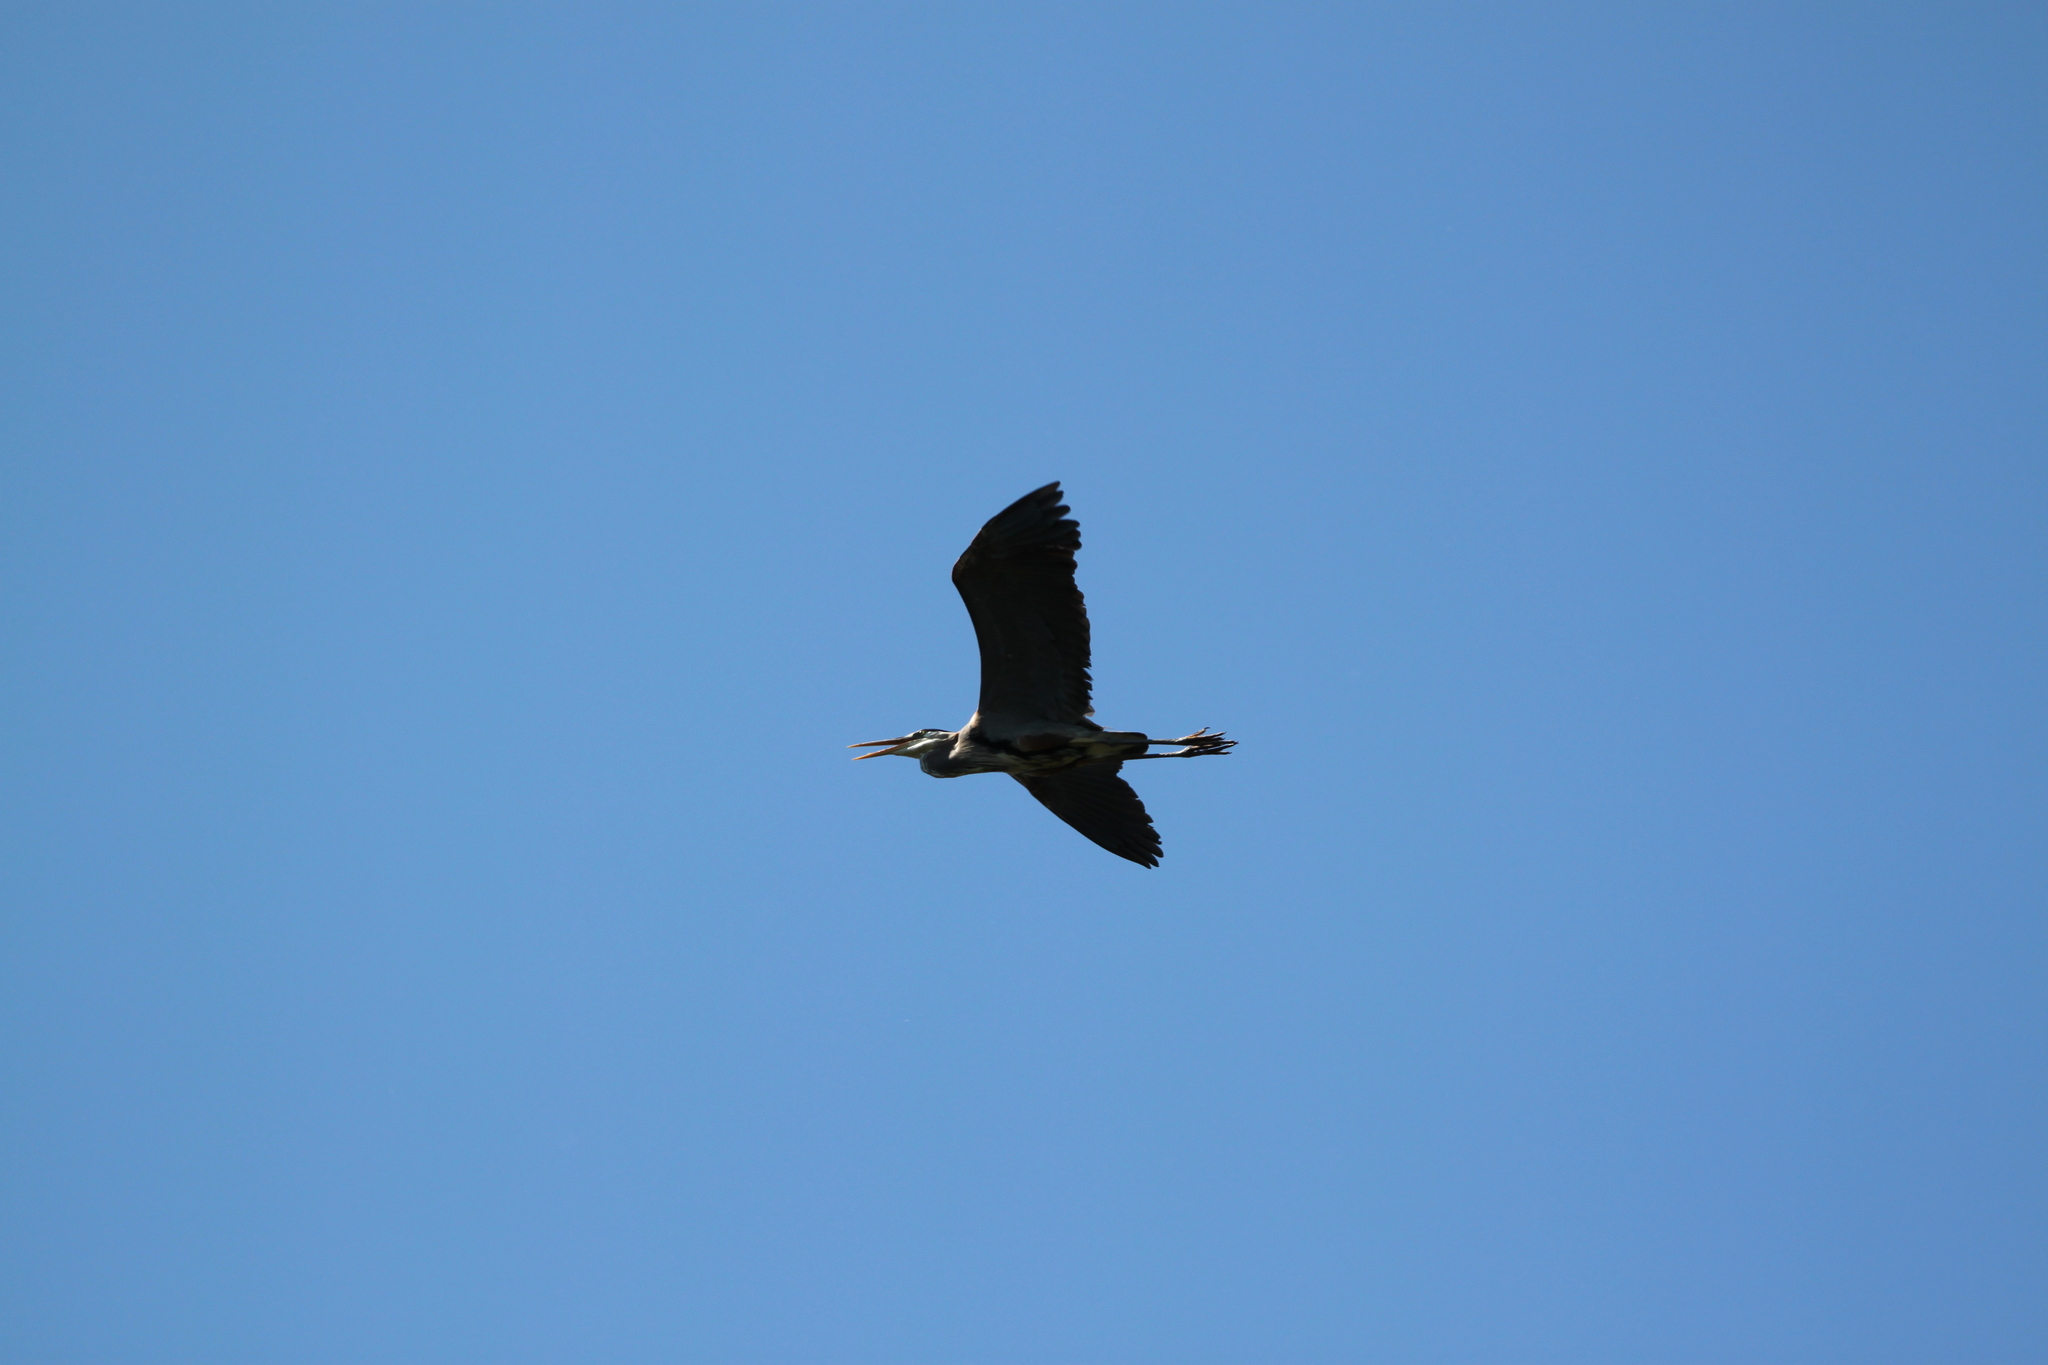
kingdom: Animalia
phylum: Chordata
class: Aves
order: Pelecaniformes
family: Ardeidae
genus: Ardea
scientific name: Ardea herodias
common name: Great blue heron
